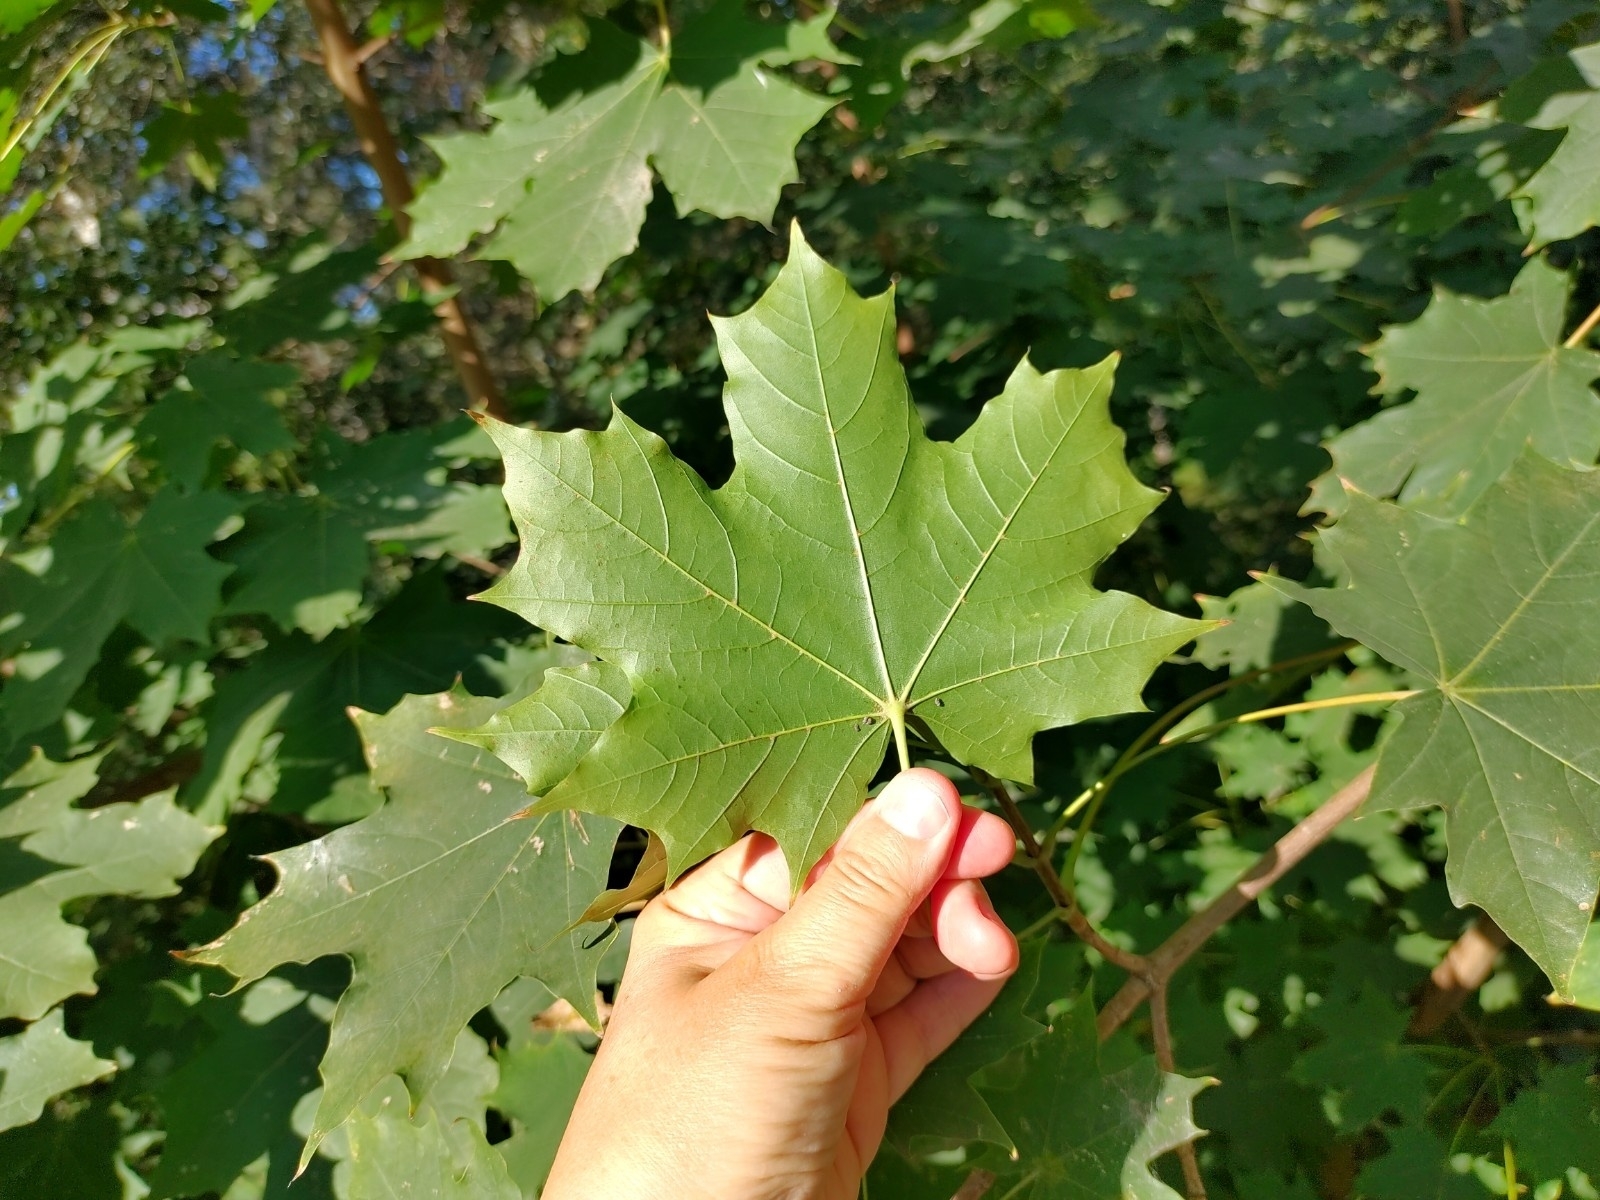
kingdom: Plantae
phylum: Tracheophyta
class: Magnoliopsida
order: Sapindales
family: Sapindaceae
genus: Acer
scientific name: Acer platanoides
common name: Norway maple
